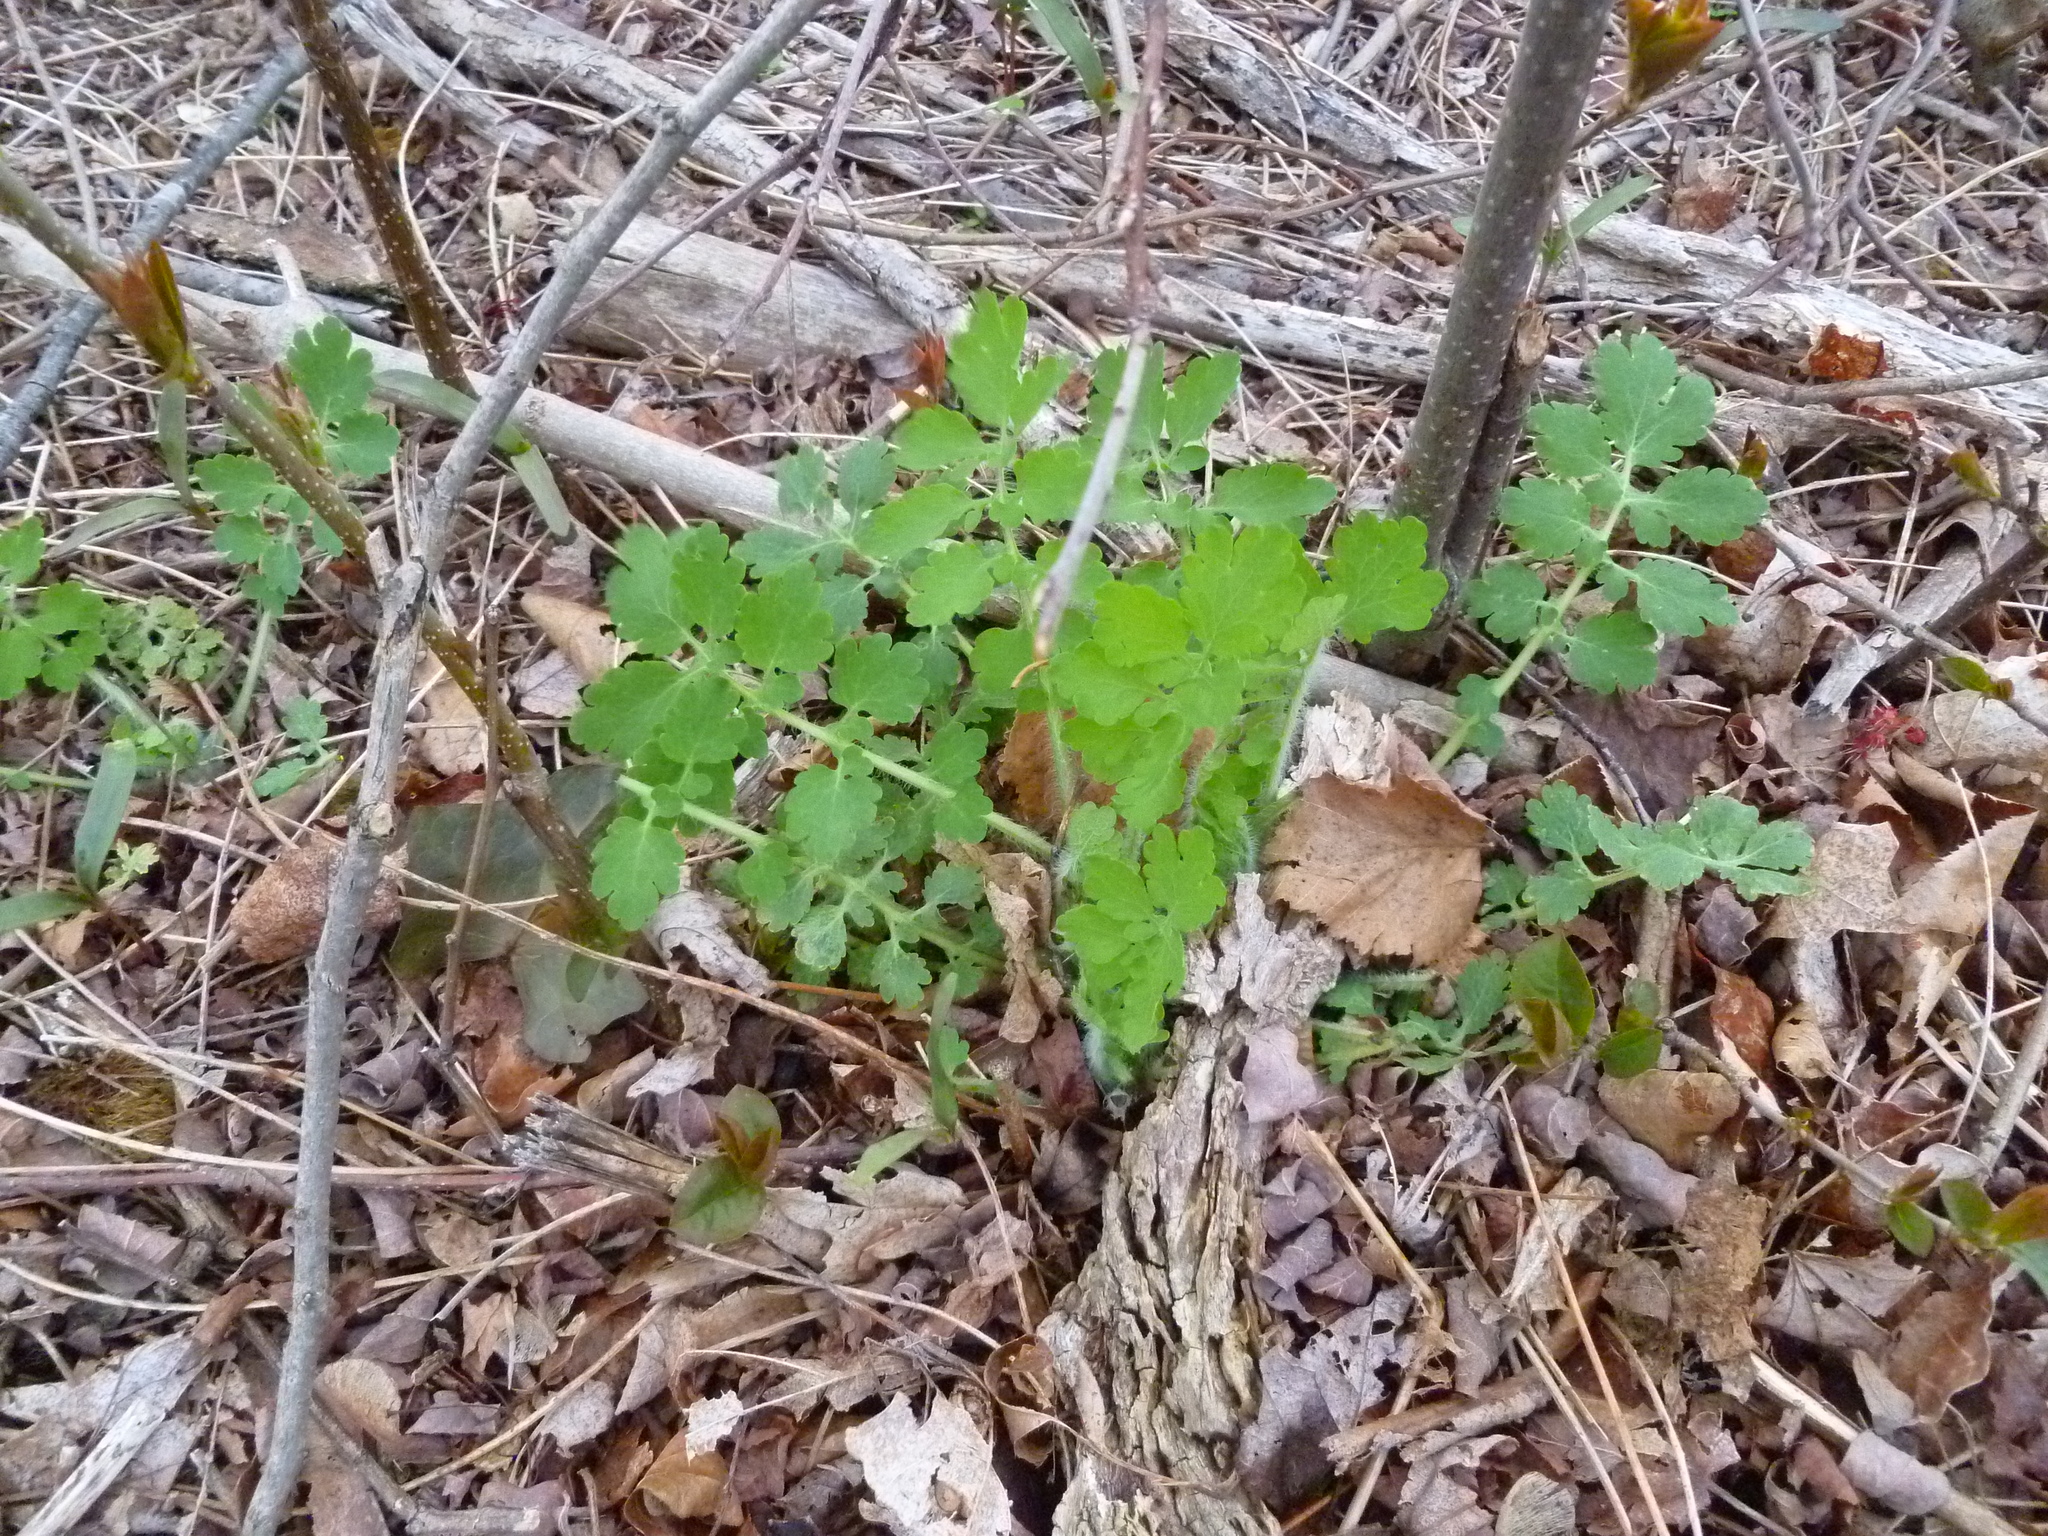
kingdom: Plantae
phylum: Tracheophyta
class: Magnoliopsida
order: Ranunculales
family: Papaveraceae
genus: Chelidonium
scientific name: Chelidonium majus
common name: Greater celandine
